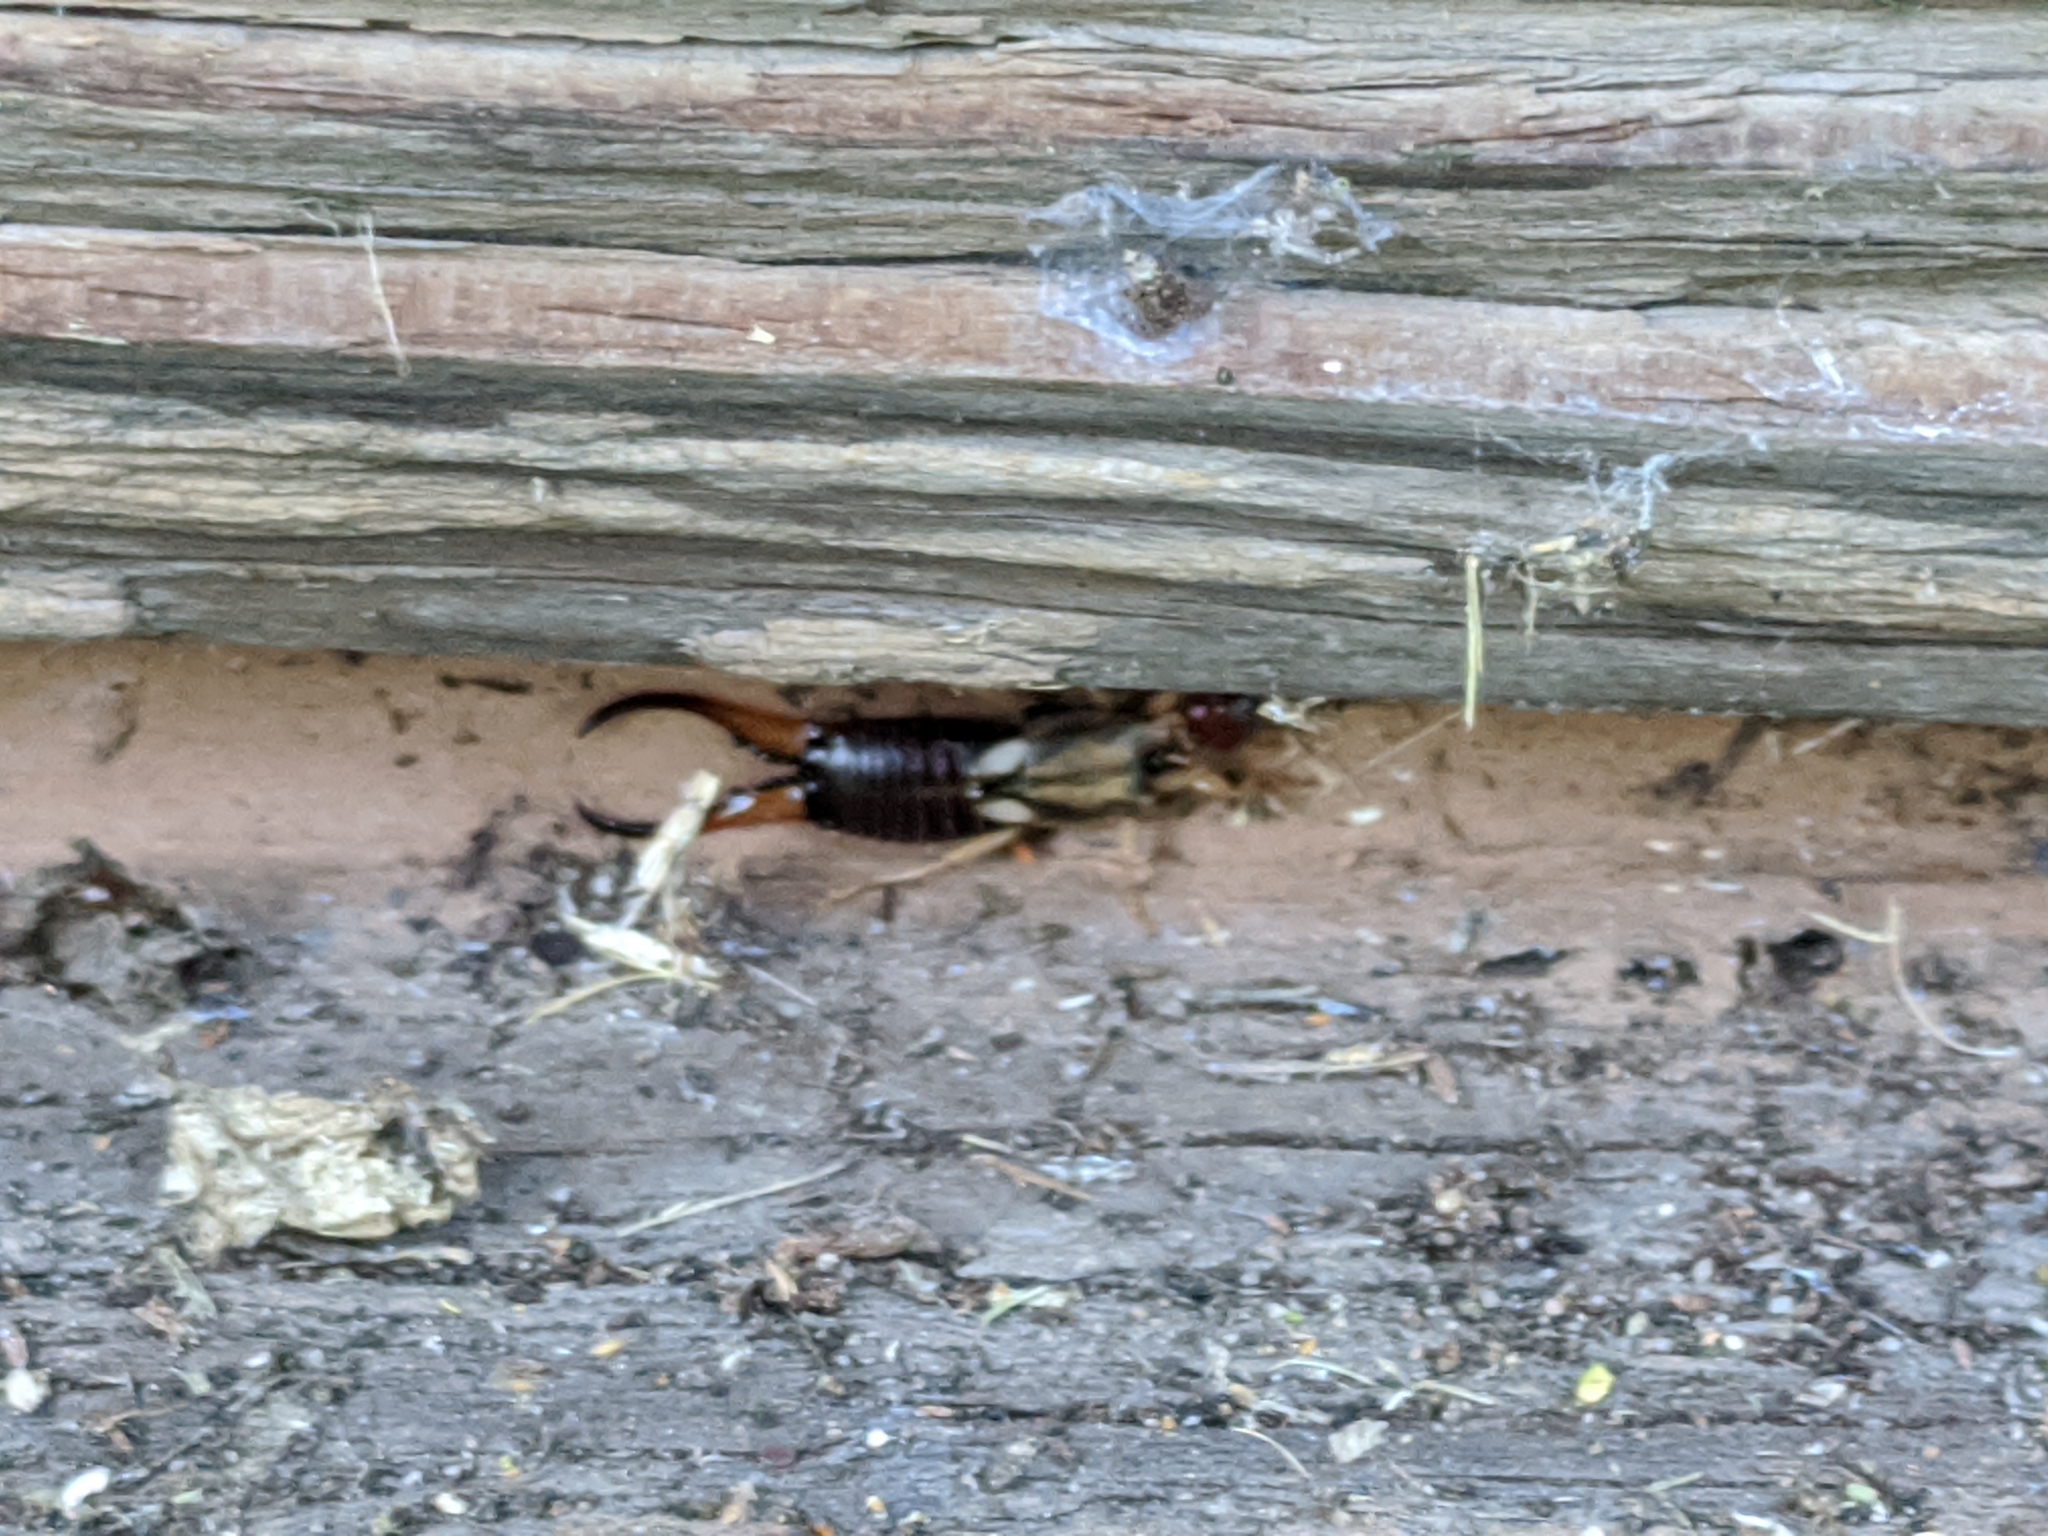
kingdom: Animalia
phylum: Arthropoda
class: Insecta
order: Dermaptera
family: Forficulidae
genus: Forficula
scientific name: Forficula
